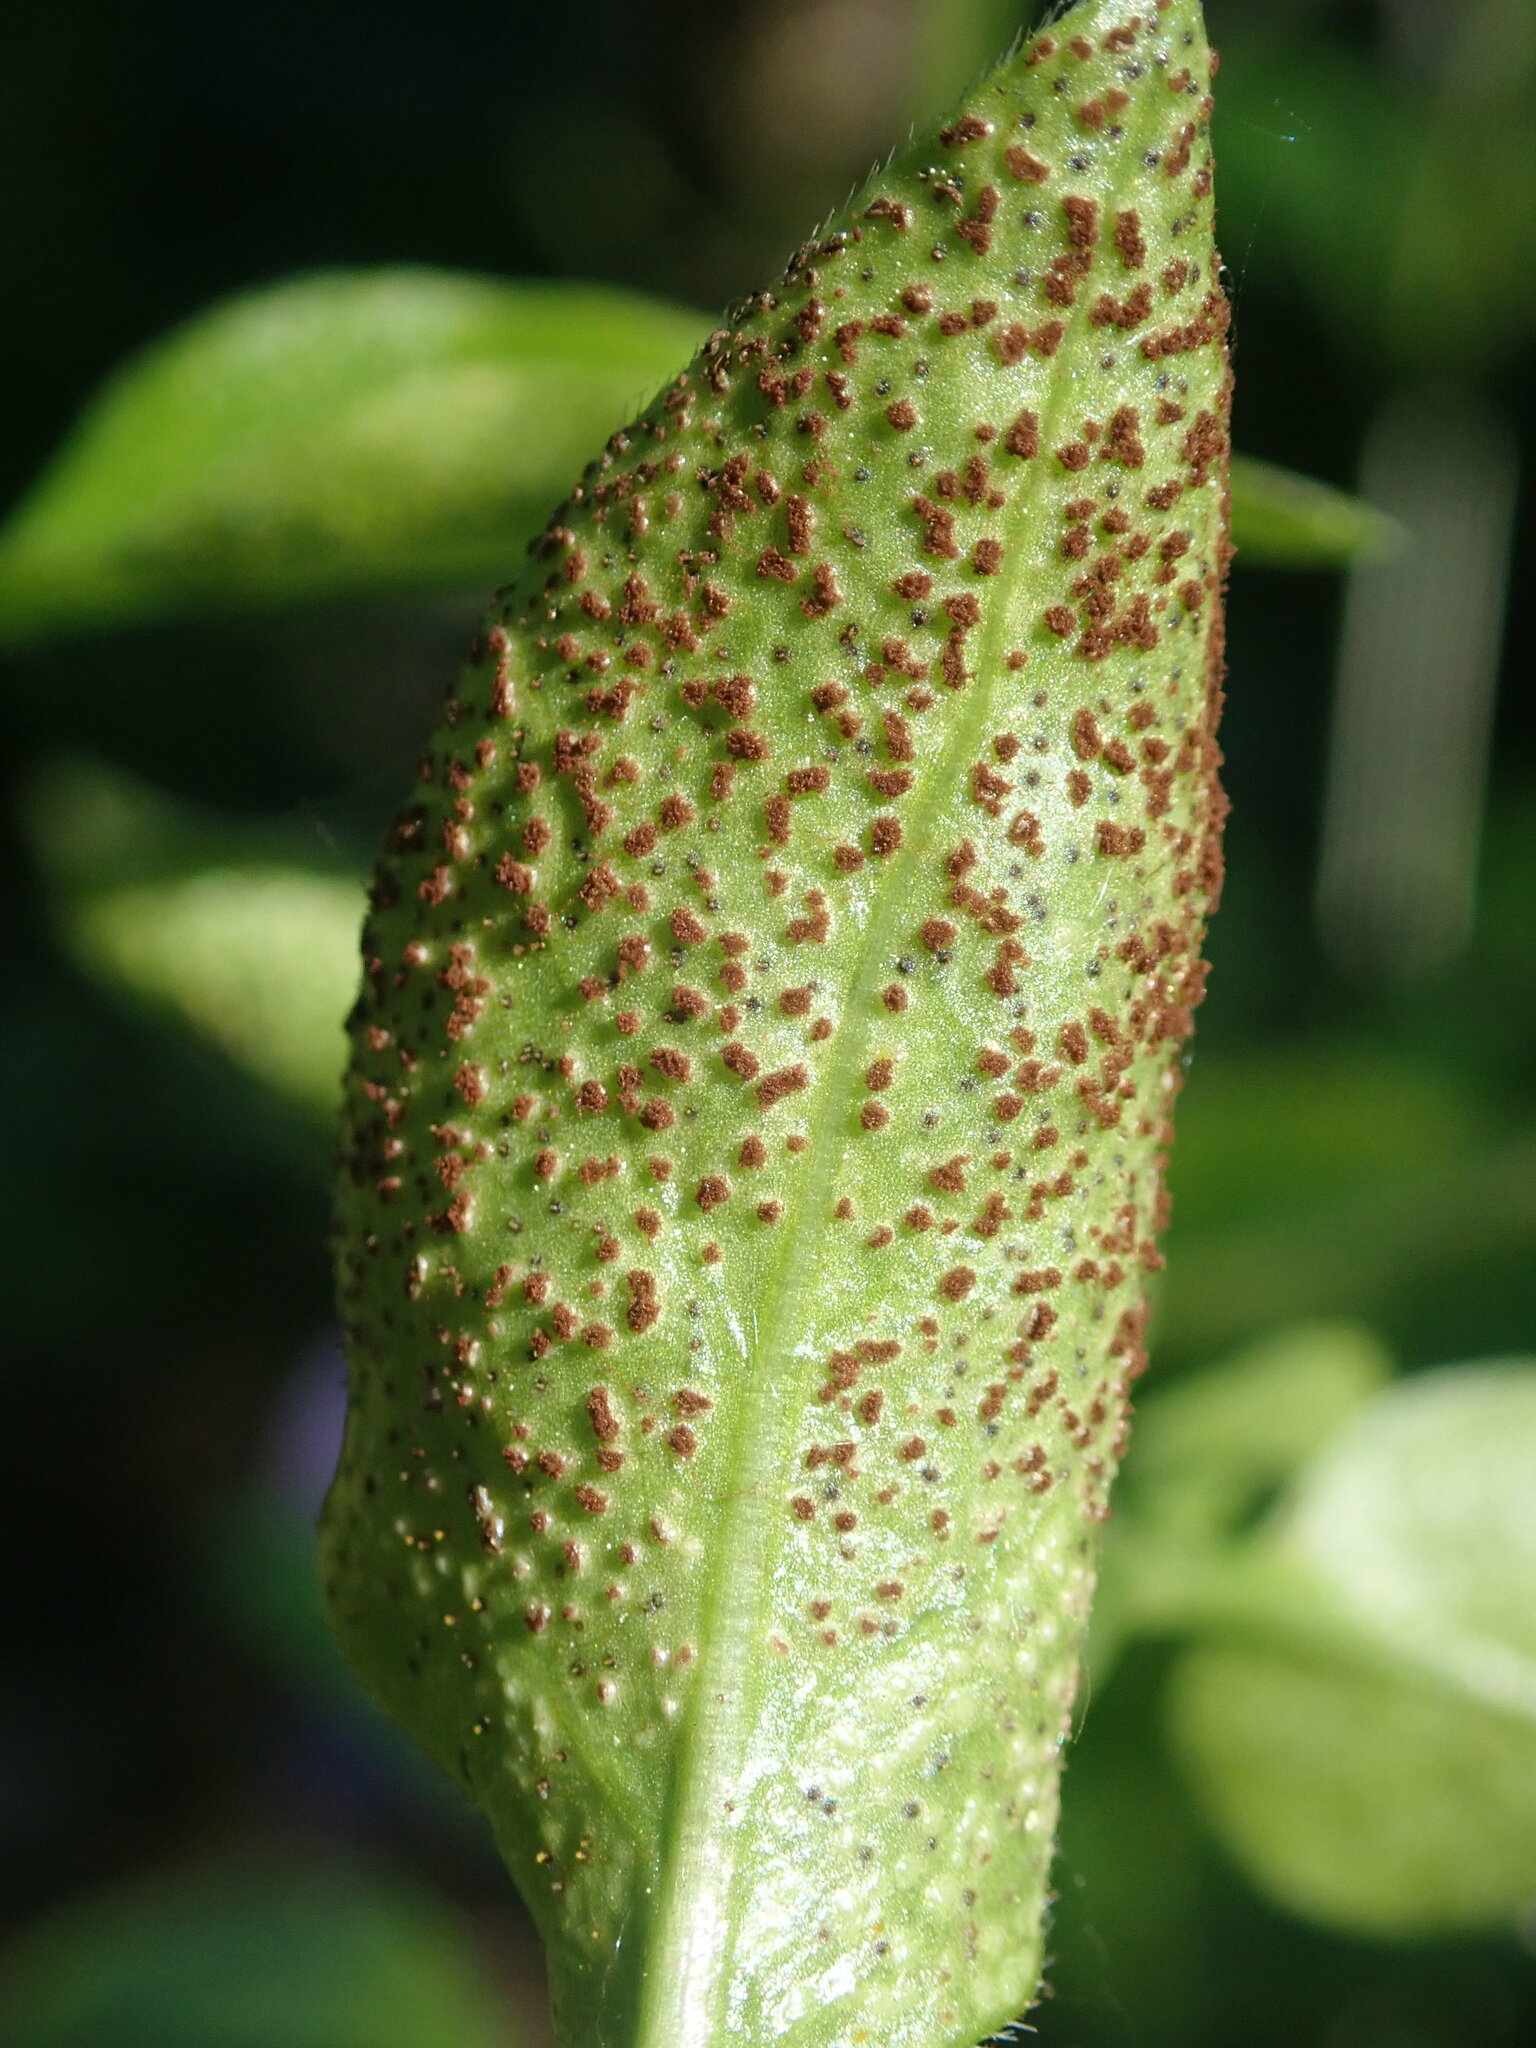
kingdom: Fungi
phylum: Basidiomycota
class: Pucciniomycetes
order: Pucciniales
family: Pucciniaceae
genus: Puccinia
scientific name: Puccinia vincae
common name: Periwinkle rust
